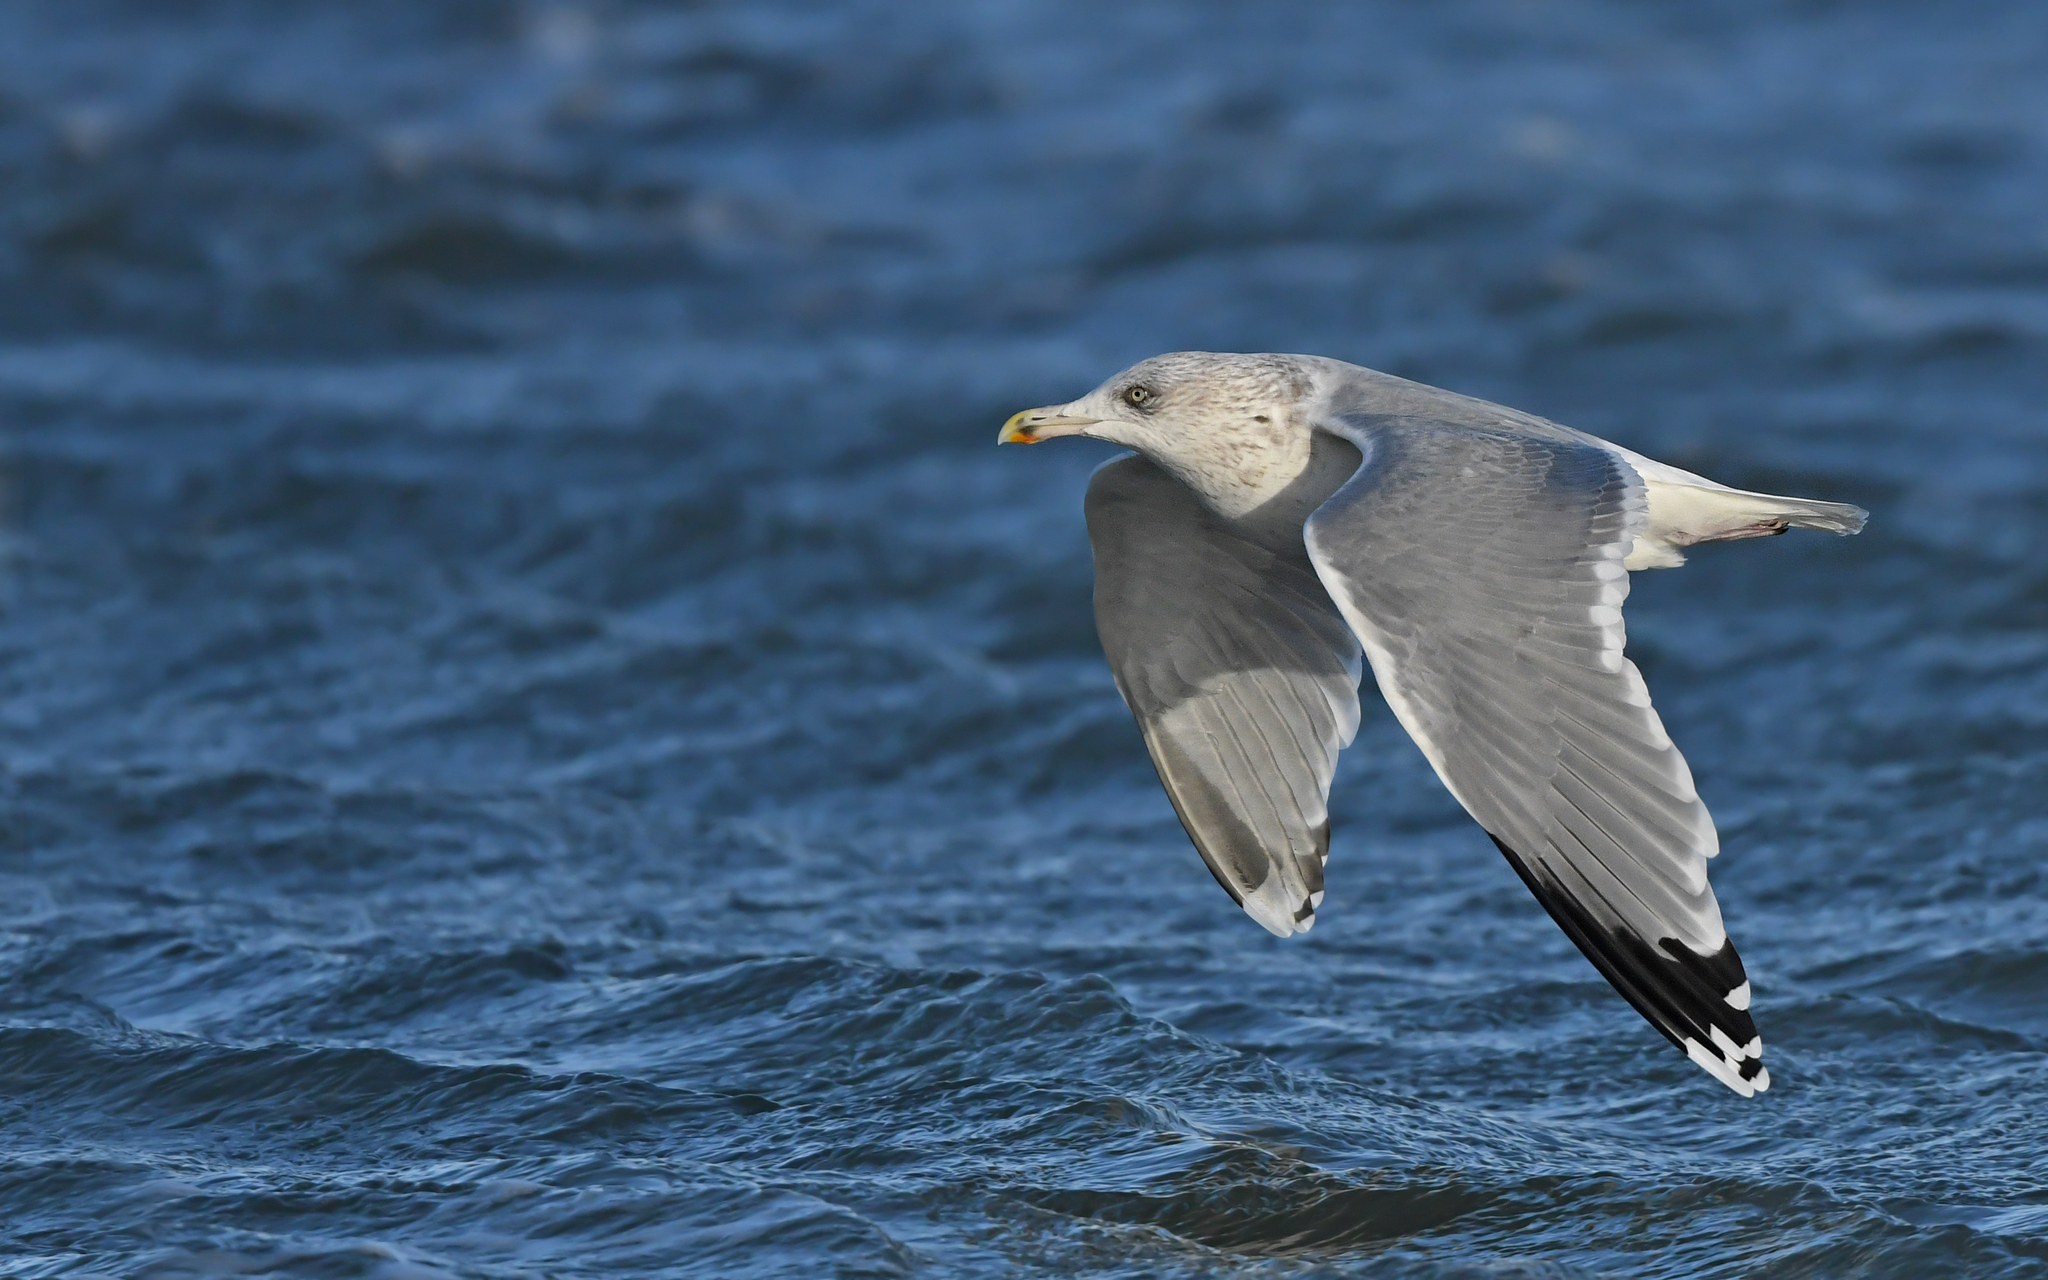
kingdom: Animalia
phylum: Chordata
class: Aves
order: Charadriiformes
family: Laridae
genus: Larus
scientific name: Larus argentatus
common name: Herring gull
